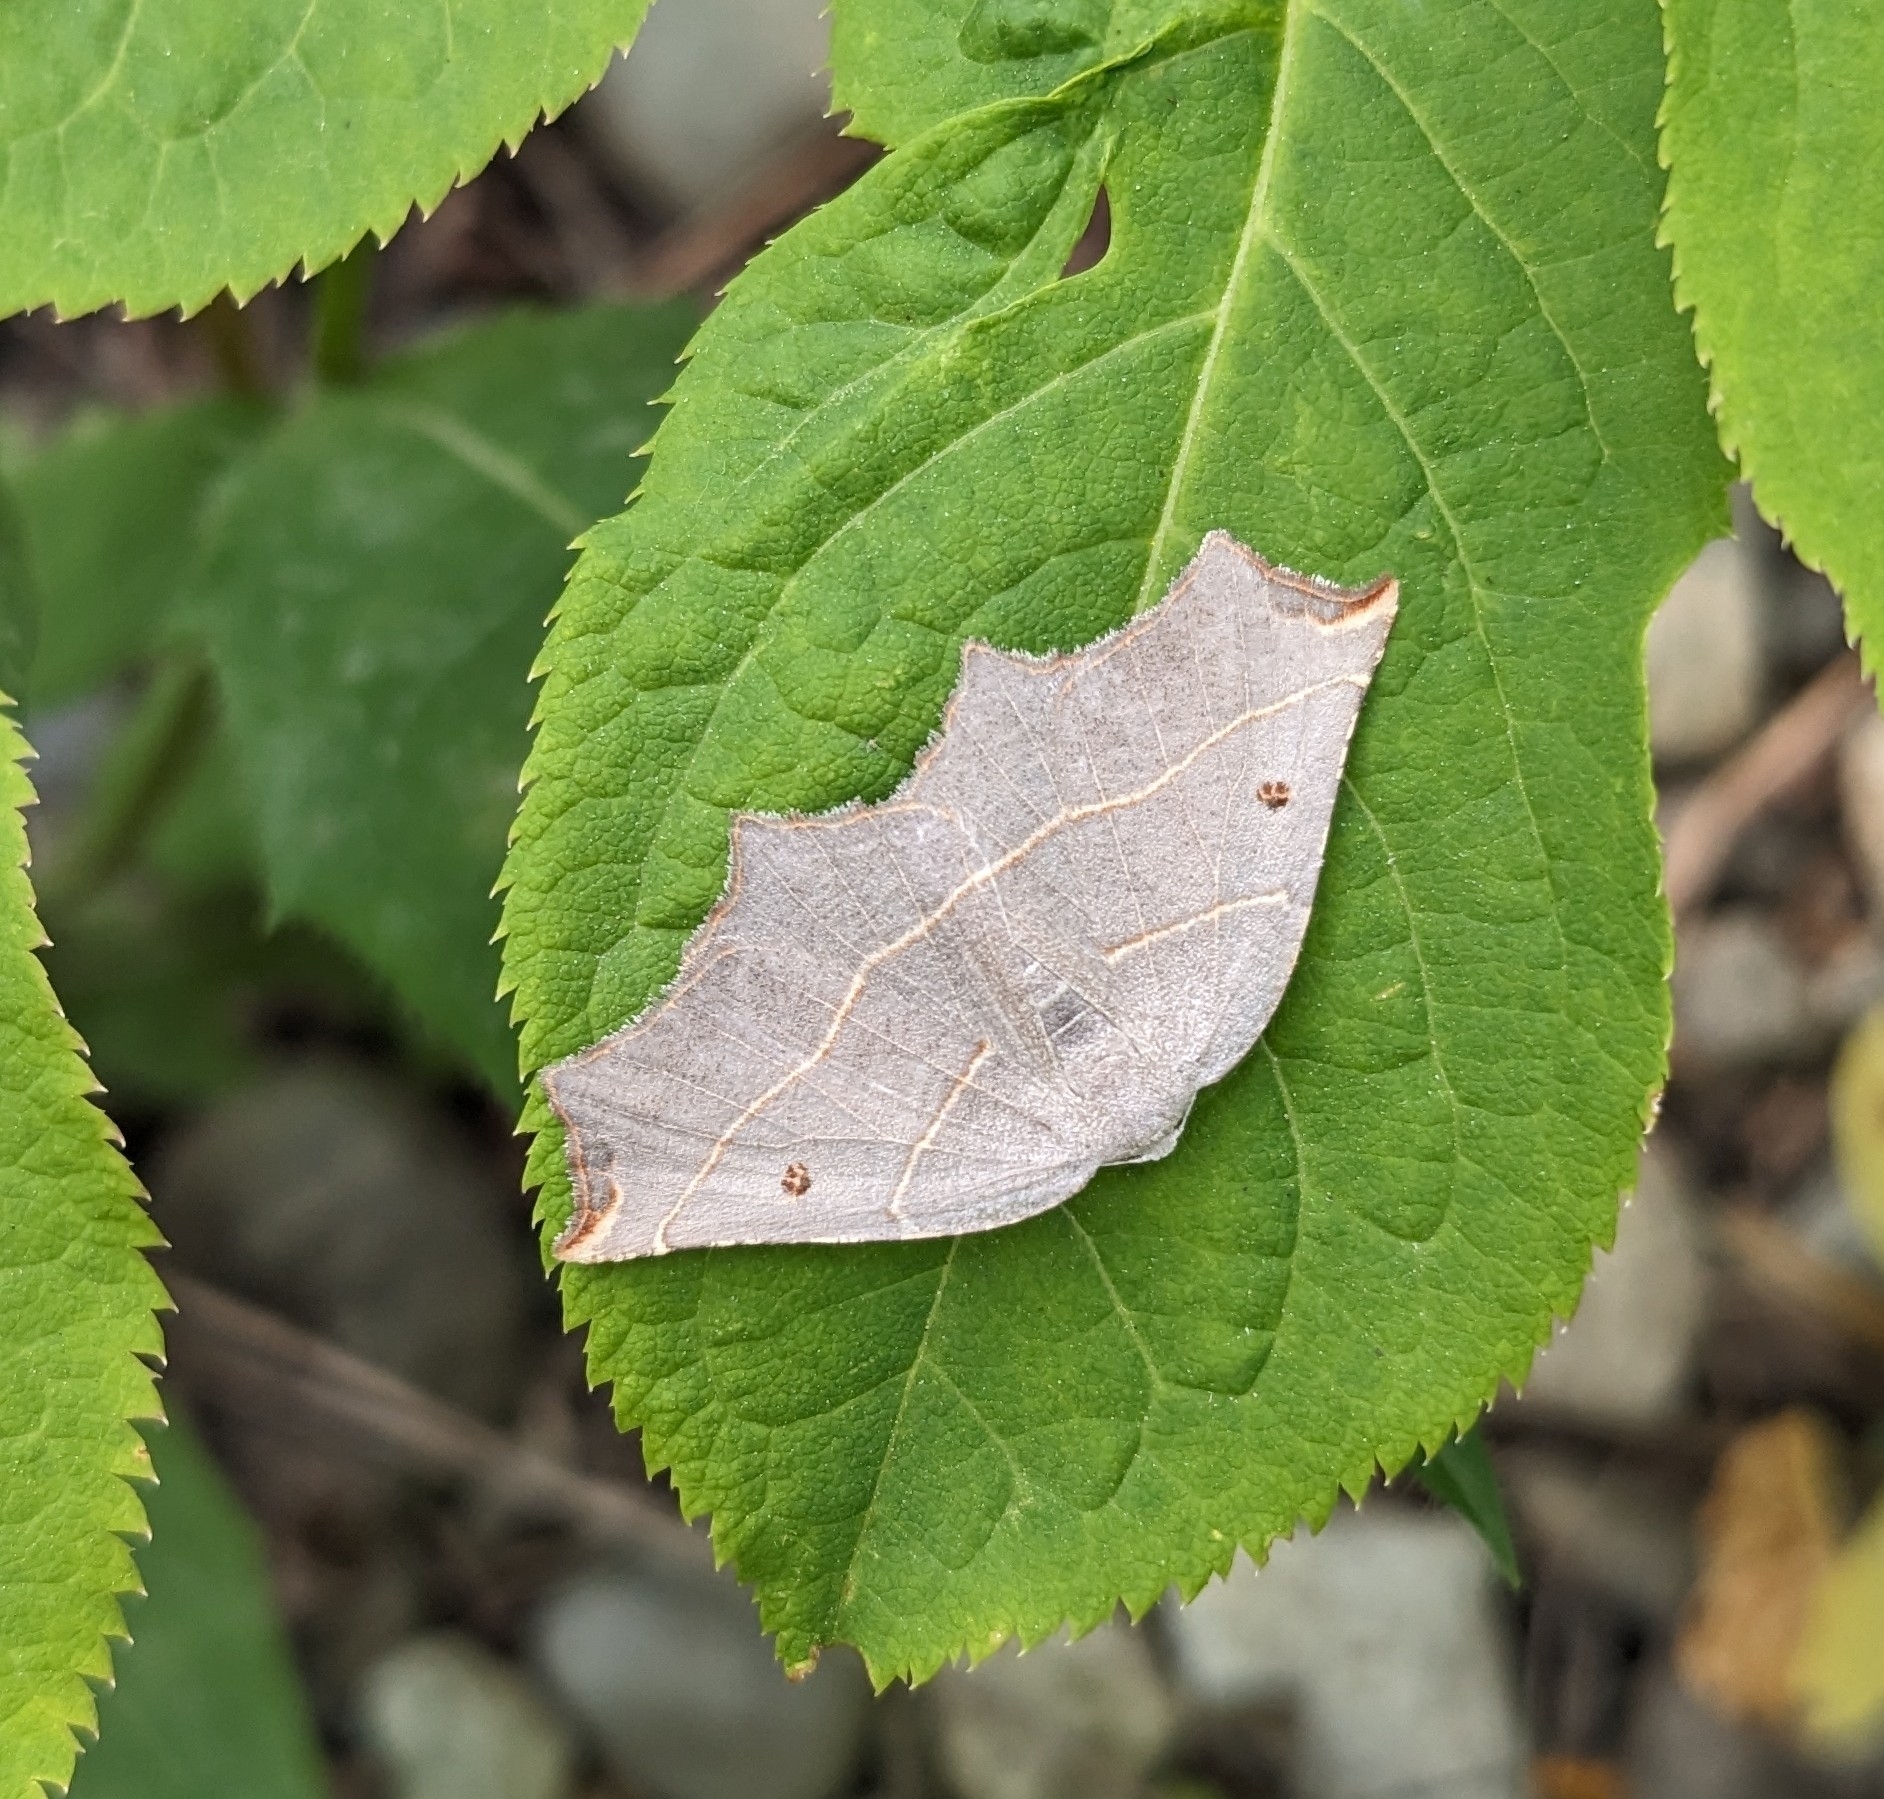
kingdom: Animalia
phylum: Arthropoda
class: Insecta
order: Lepidoptera
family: Geometridae
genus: Metanema
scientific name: Metanema inatomaria
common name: Pale metanema
